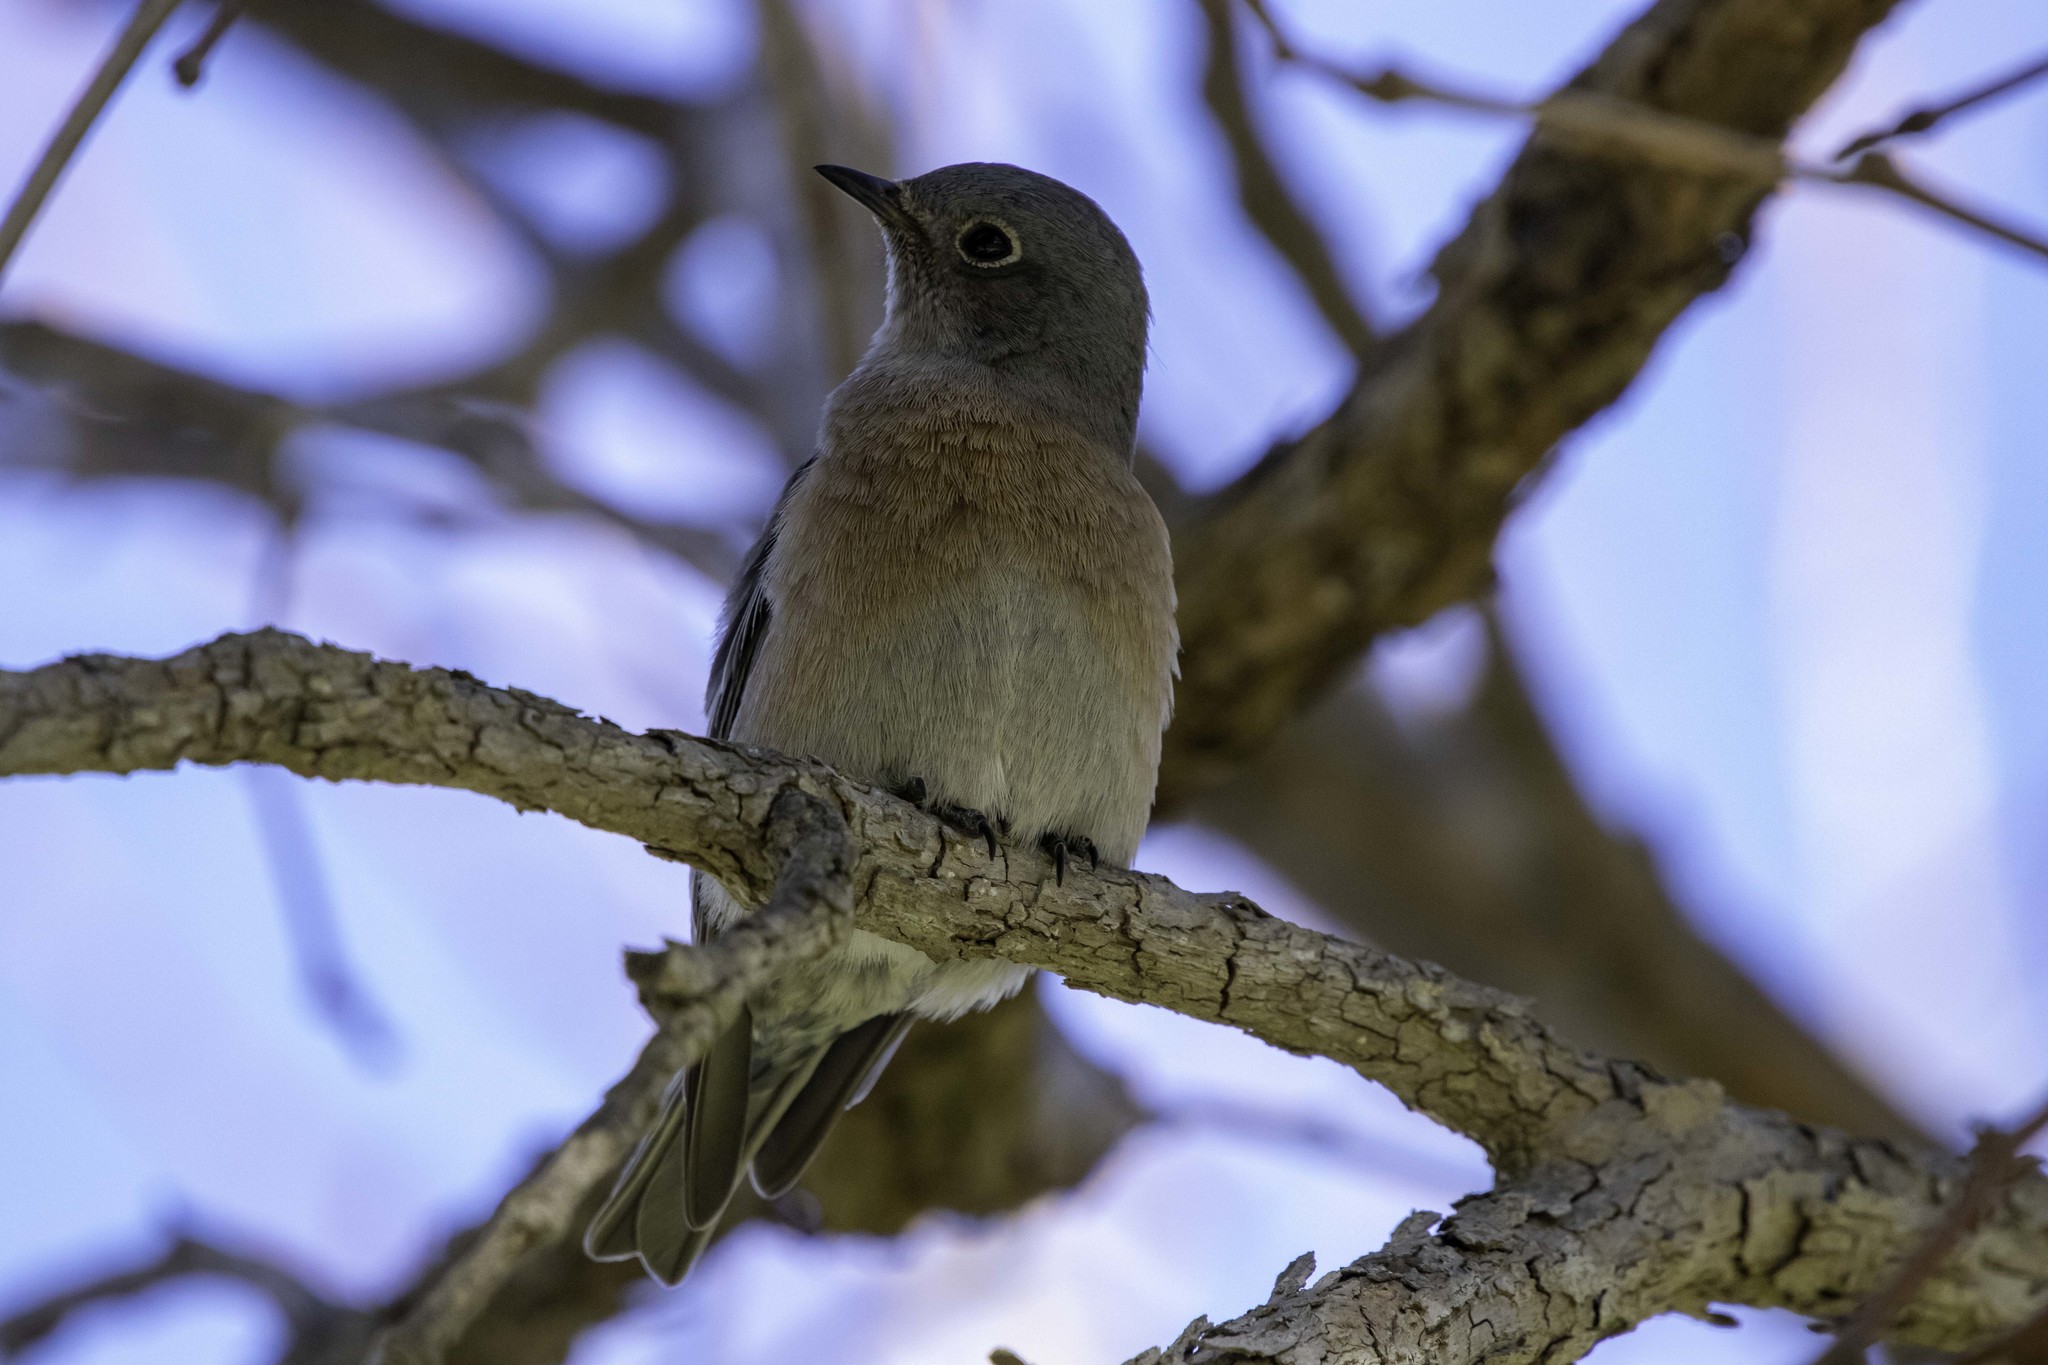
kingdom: Animalia
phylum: Chordata
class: Aves
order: Passeriformes
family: Turdidae
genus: Sialia
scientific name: Sialia mexicana
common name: Western bluebird
